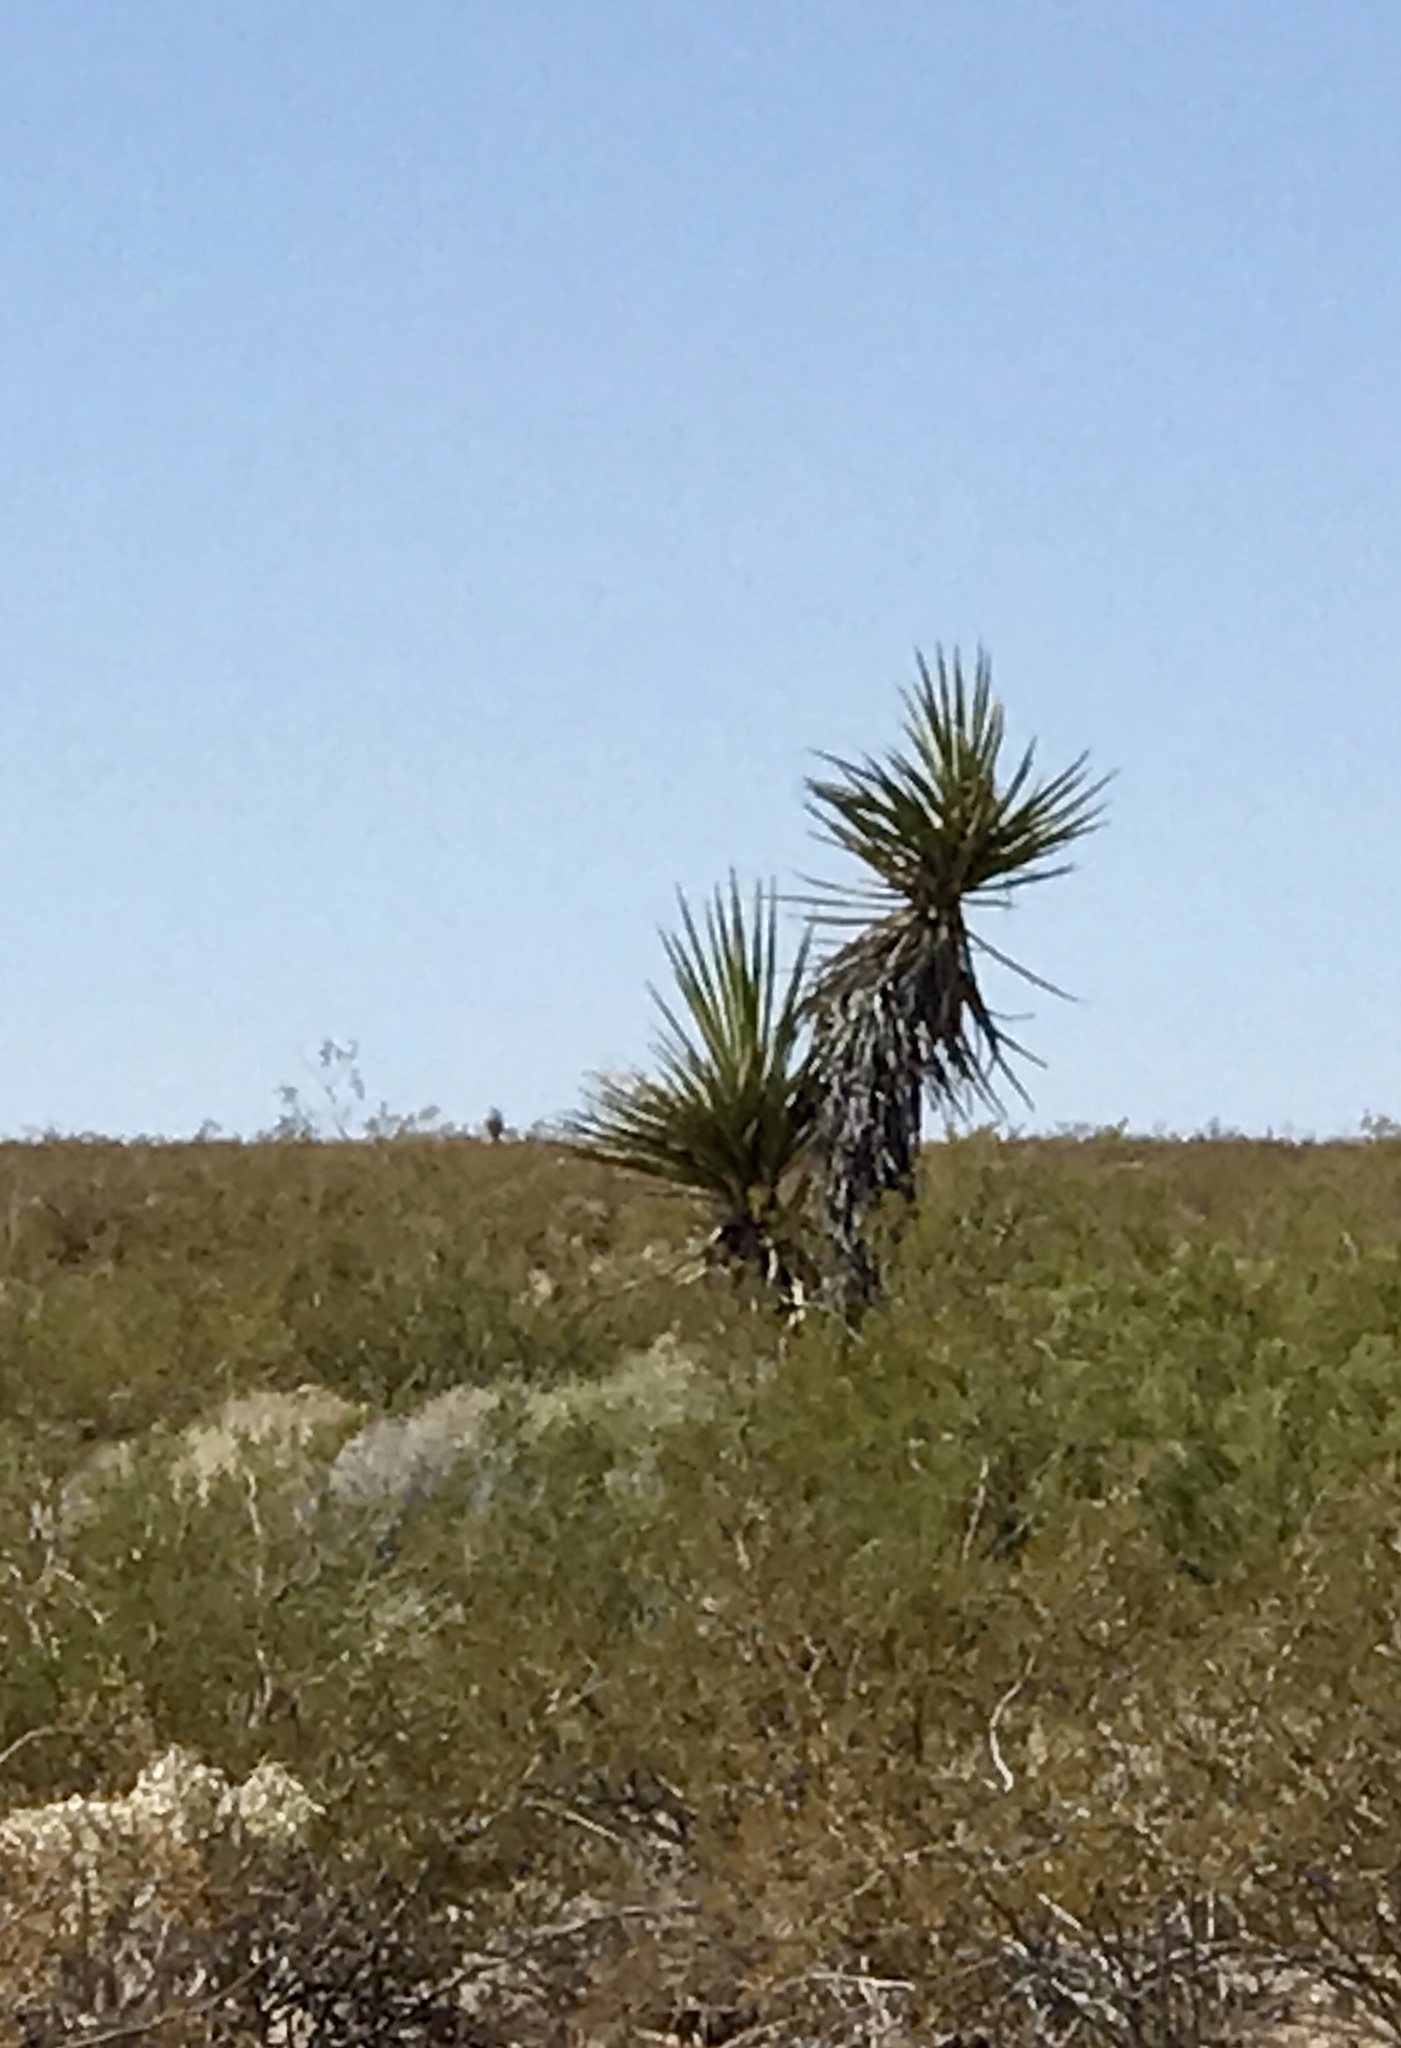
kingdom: Plantae
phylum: Tracheophyta
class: Liliopsida
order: Asparagales
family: Asparagaceae
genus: Yucca
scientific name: Yucca schidigera
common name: Mojave yucca
